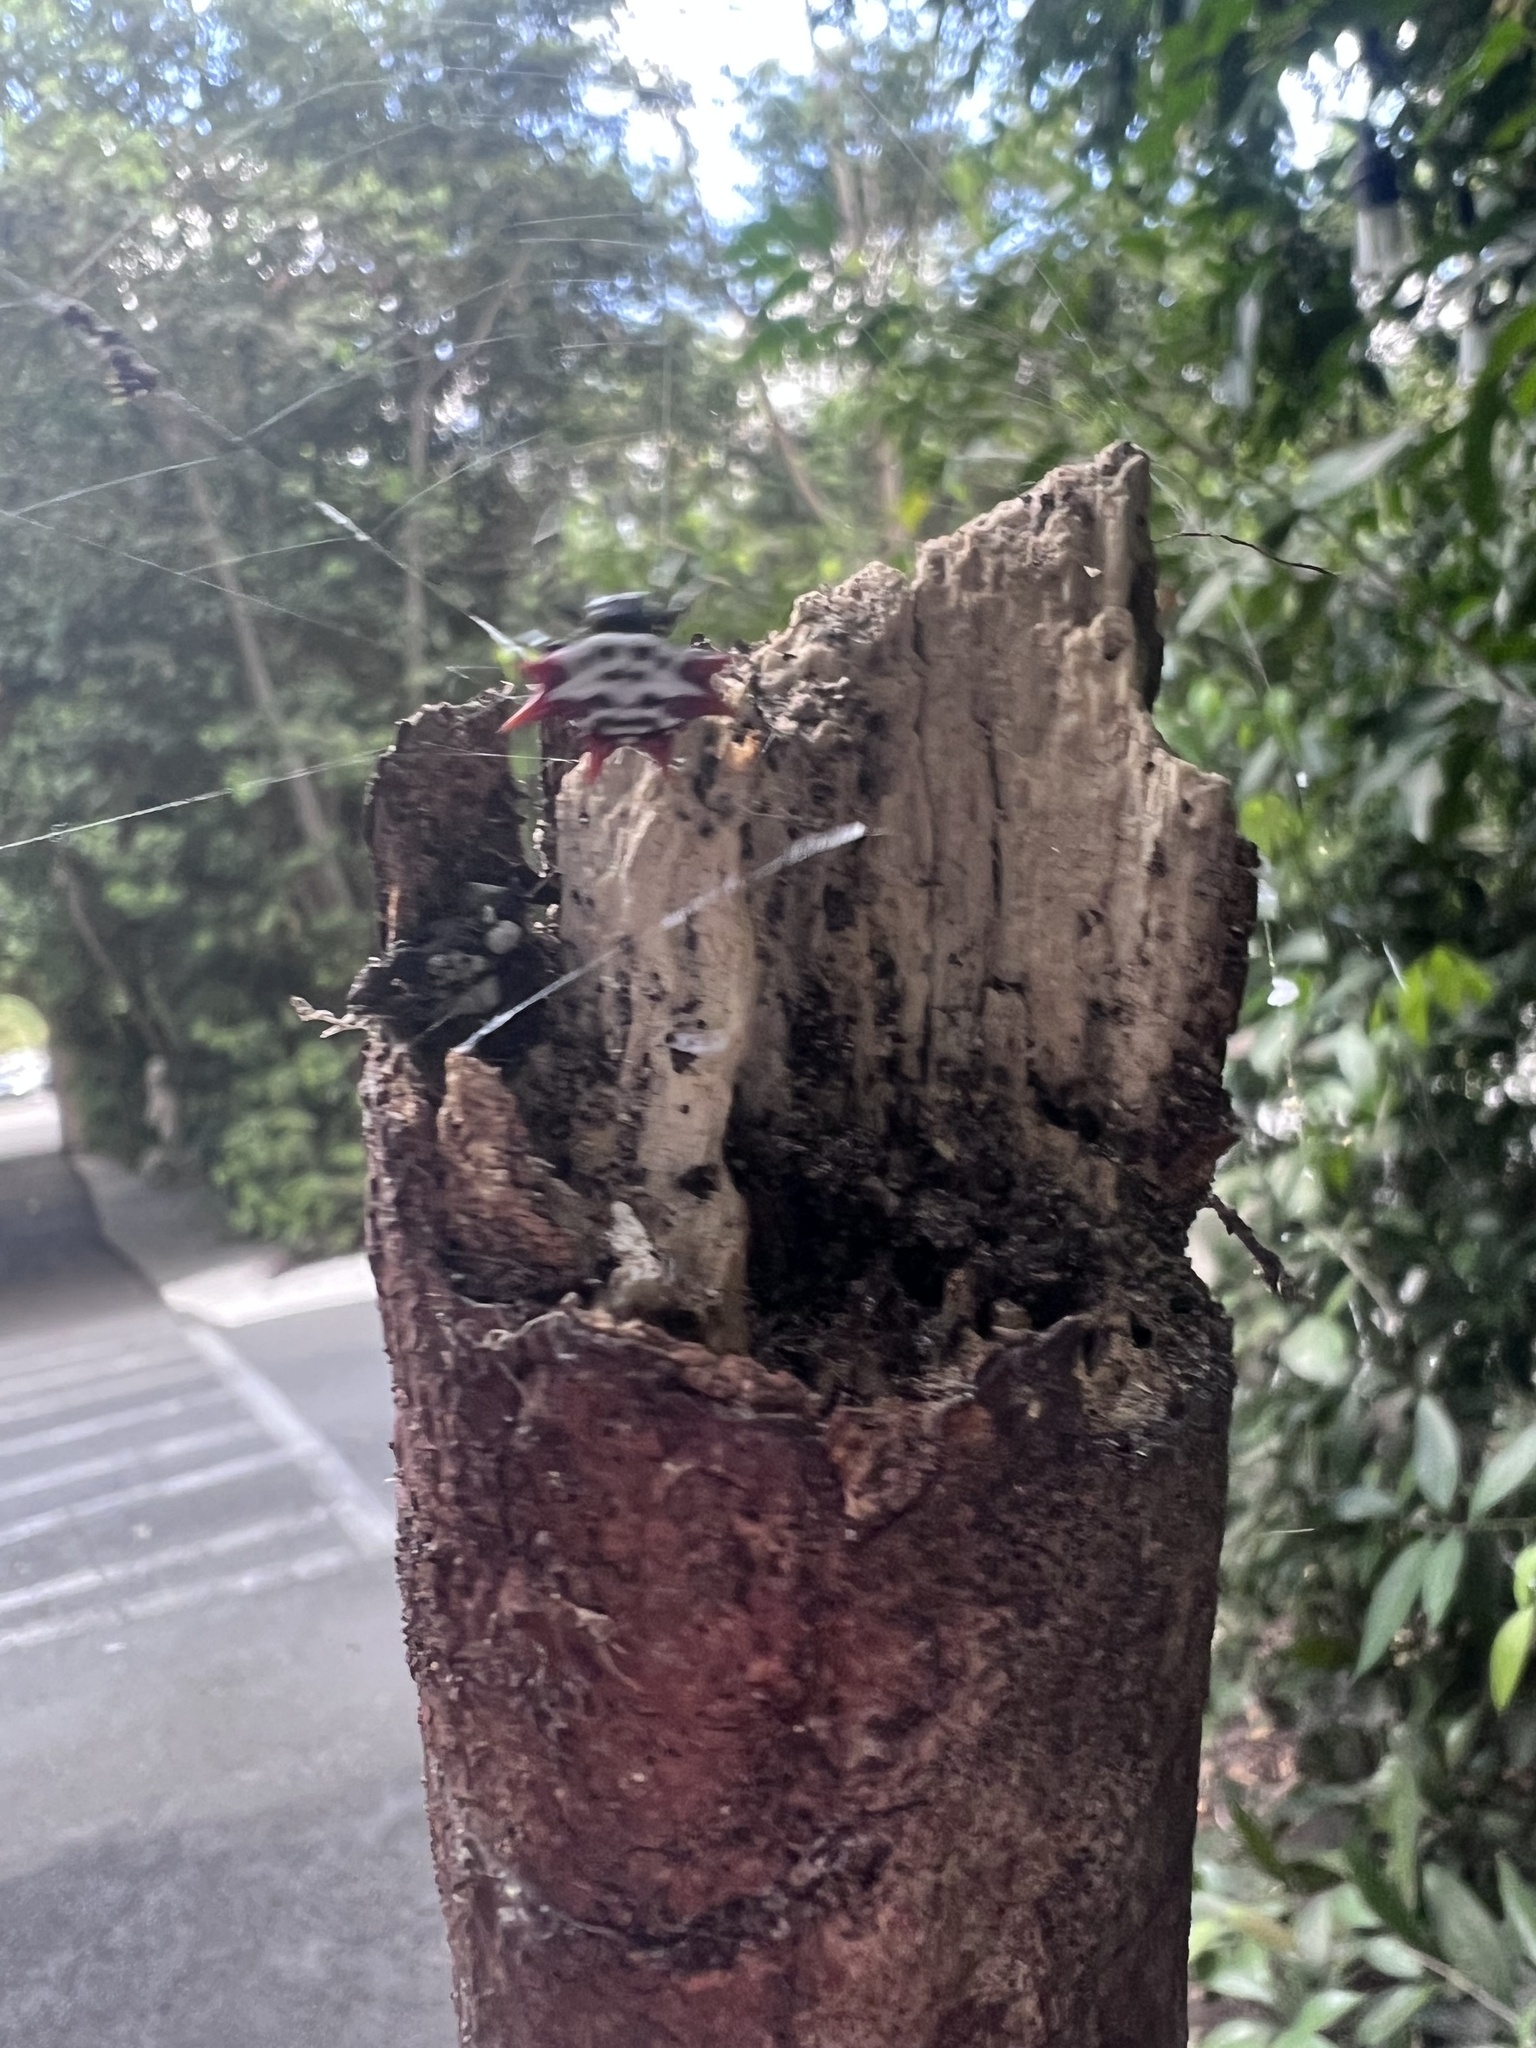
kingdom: Animalia
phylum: Arthropoda
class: Arachnida
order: Araneae
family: Araneidae
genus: Gasteracantha
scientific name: Gasteracantha cancriformis
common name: Orb weavers
